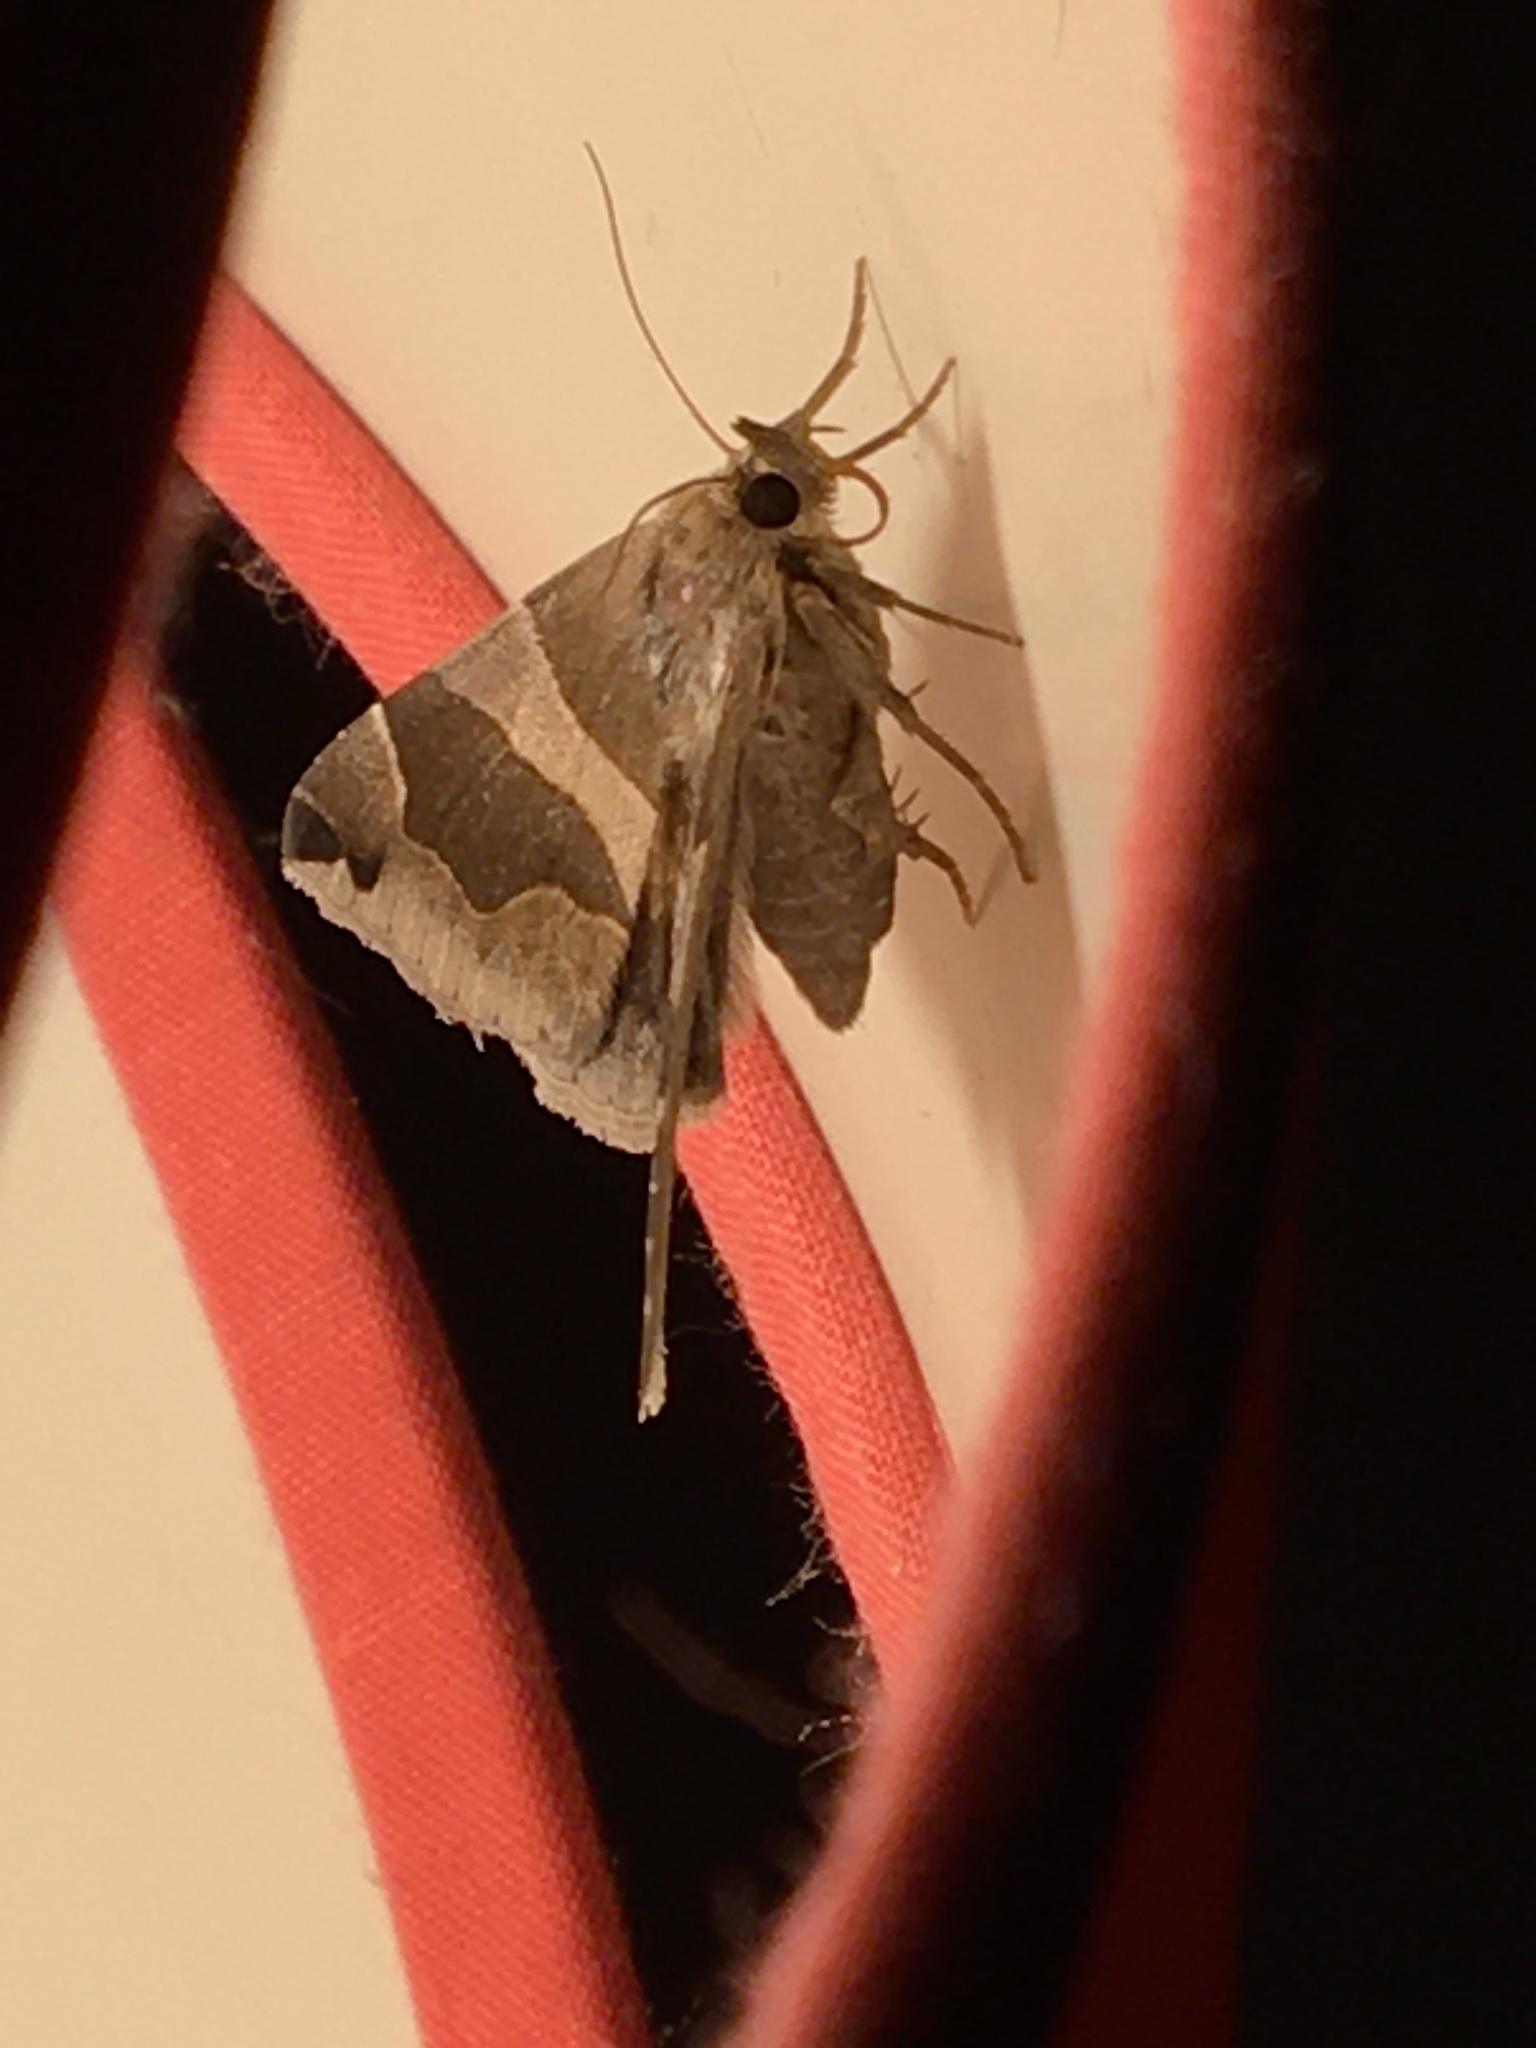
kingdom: Animalia
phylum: Arthropoda
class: Insecta
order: Lepidoptera
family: Erebidae
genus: Dysgonia
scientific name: Dysgonia algira
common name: Passenger
